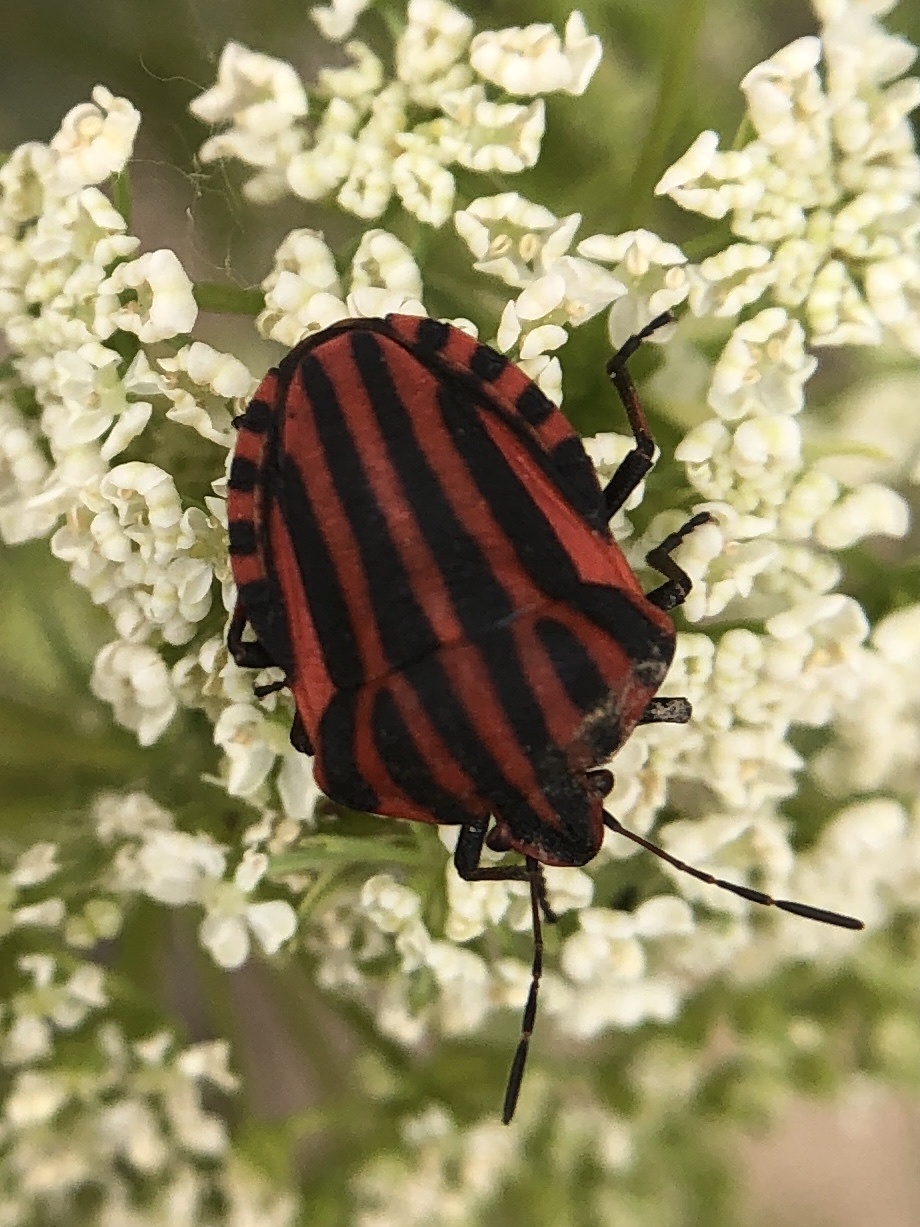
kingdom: Animalia
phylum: Arthropoda
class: Insecta
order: Hemiptera
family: Pentatomidae
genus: Graphosoma
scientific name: Graphosoma italicum
